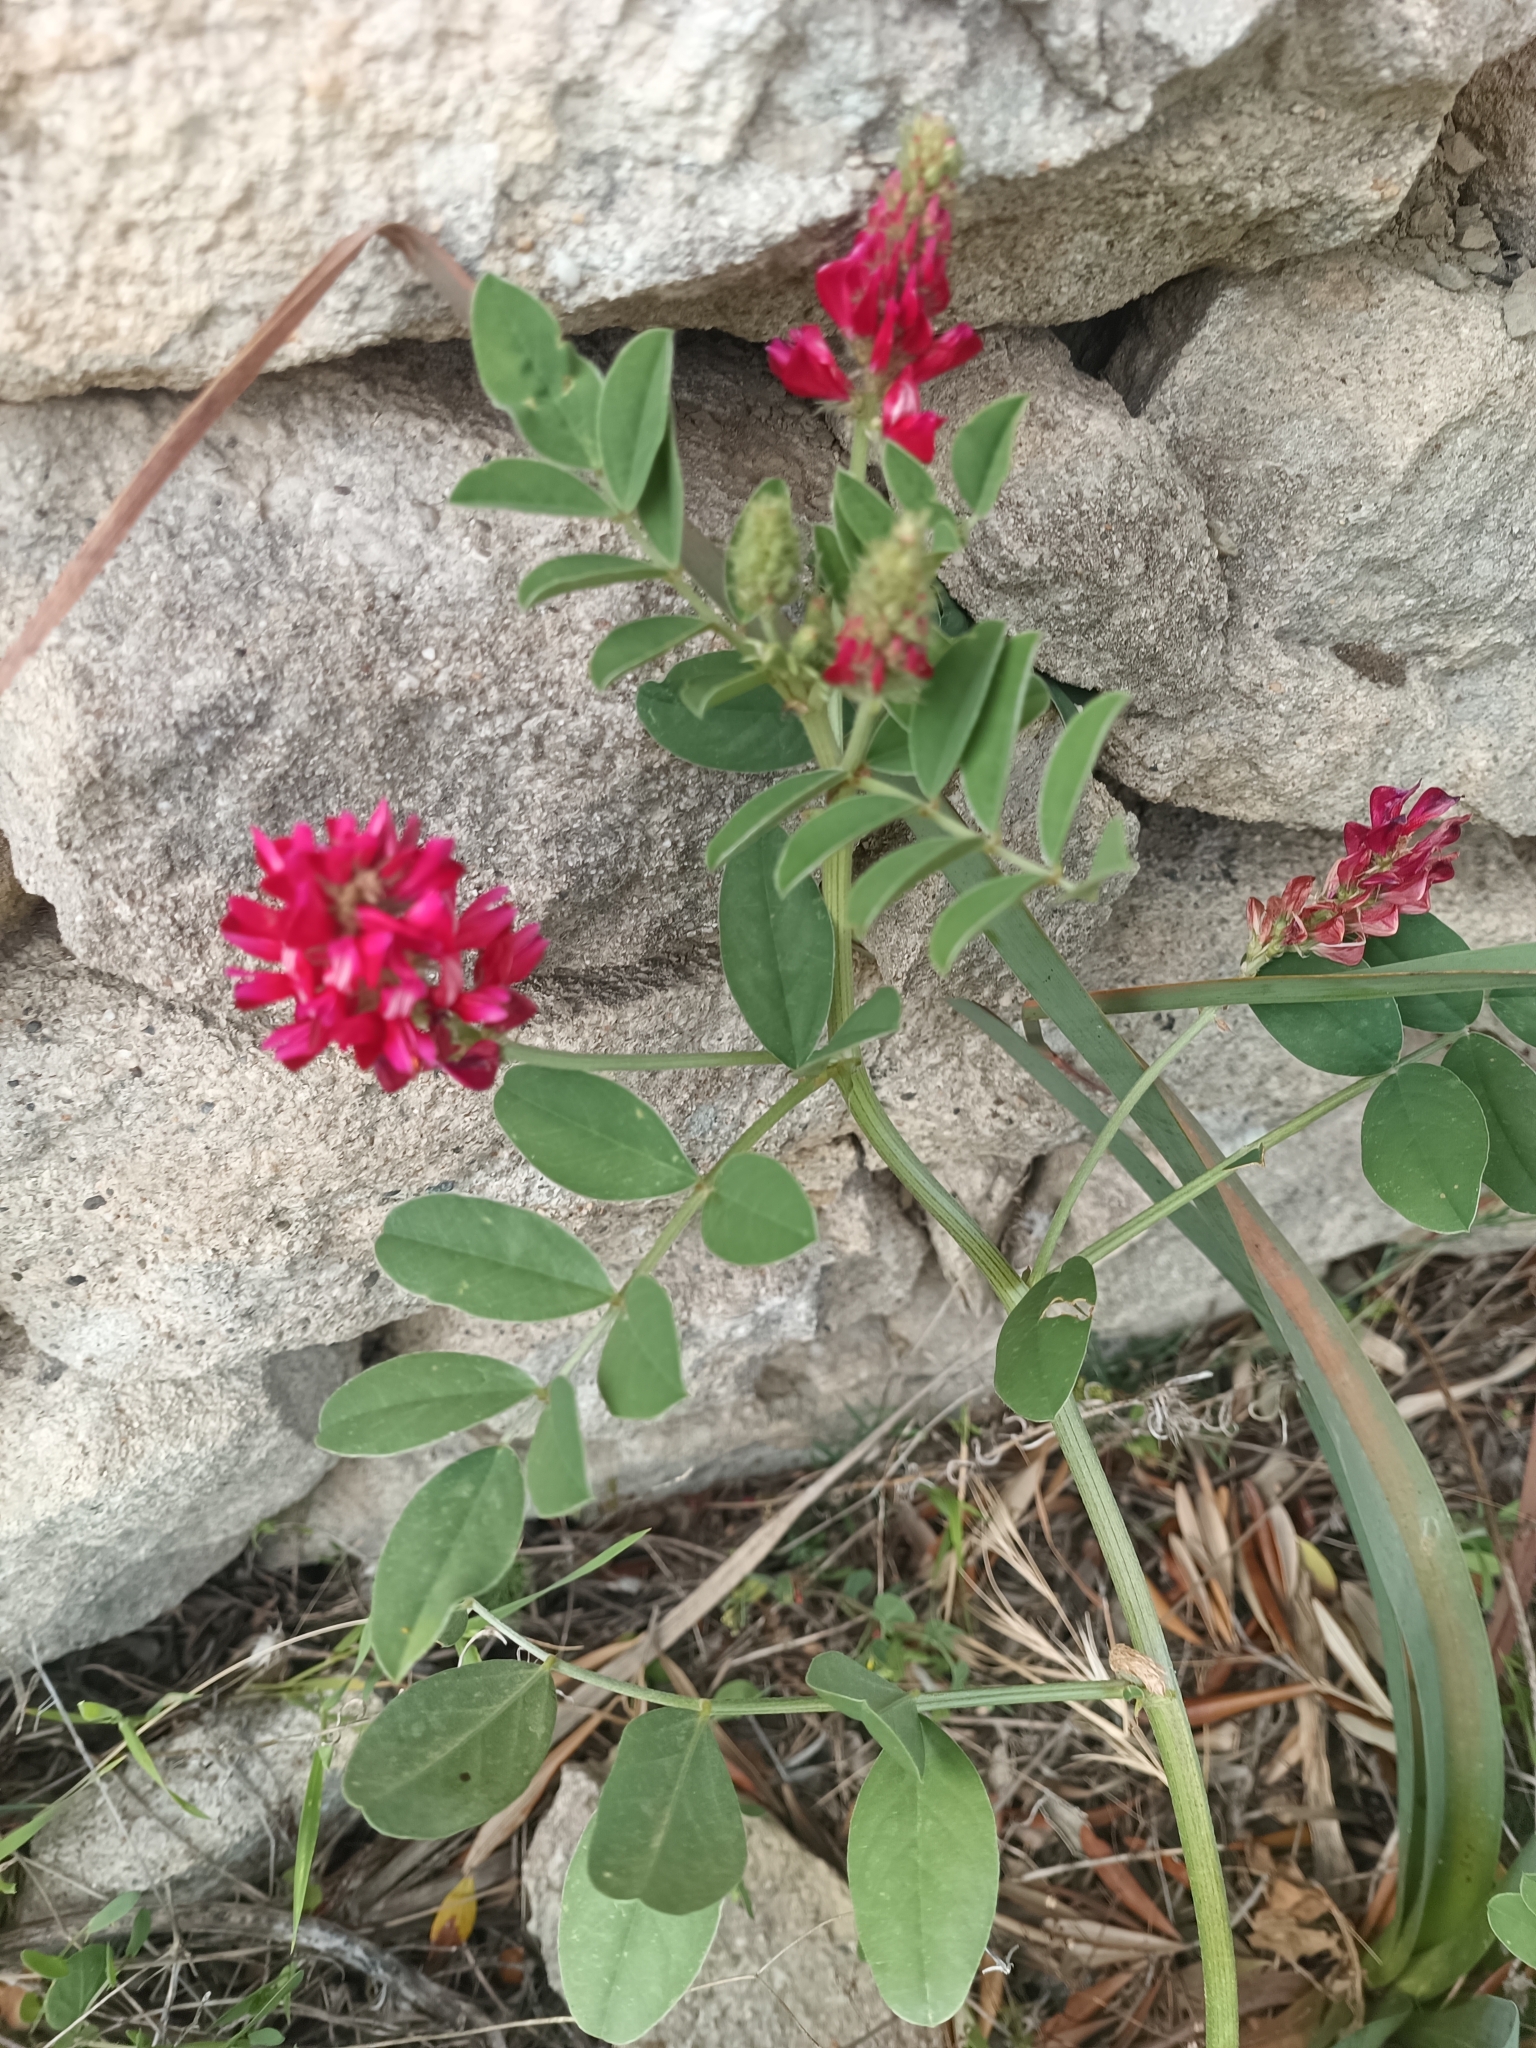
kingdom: Plantae
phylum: Tracheophyta
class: Magnoliopsida
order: Fabales
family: Fabaceae
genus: Sulla
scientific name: Sulla coronaria
